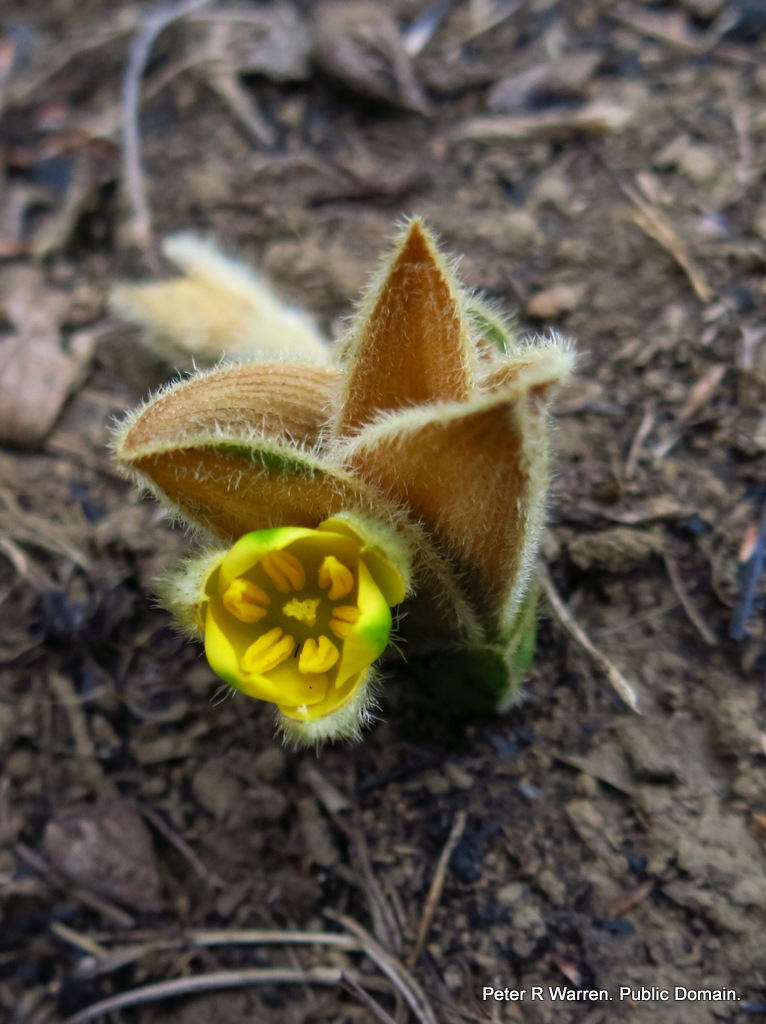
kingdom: Plantae
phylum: Tracheophyta
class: Liliopsida
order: Asparagales
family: Hypoxidaceae
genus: Hypoxis
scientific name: Hypoxis multiceps
